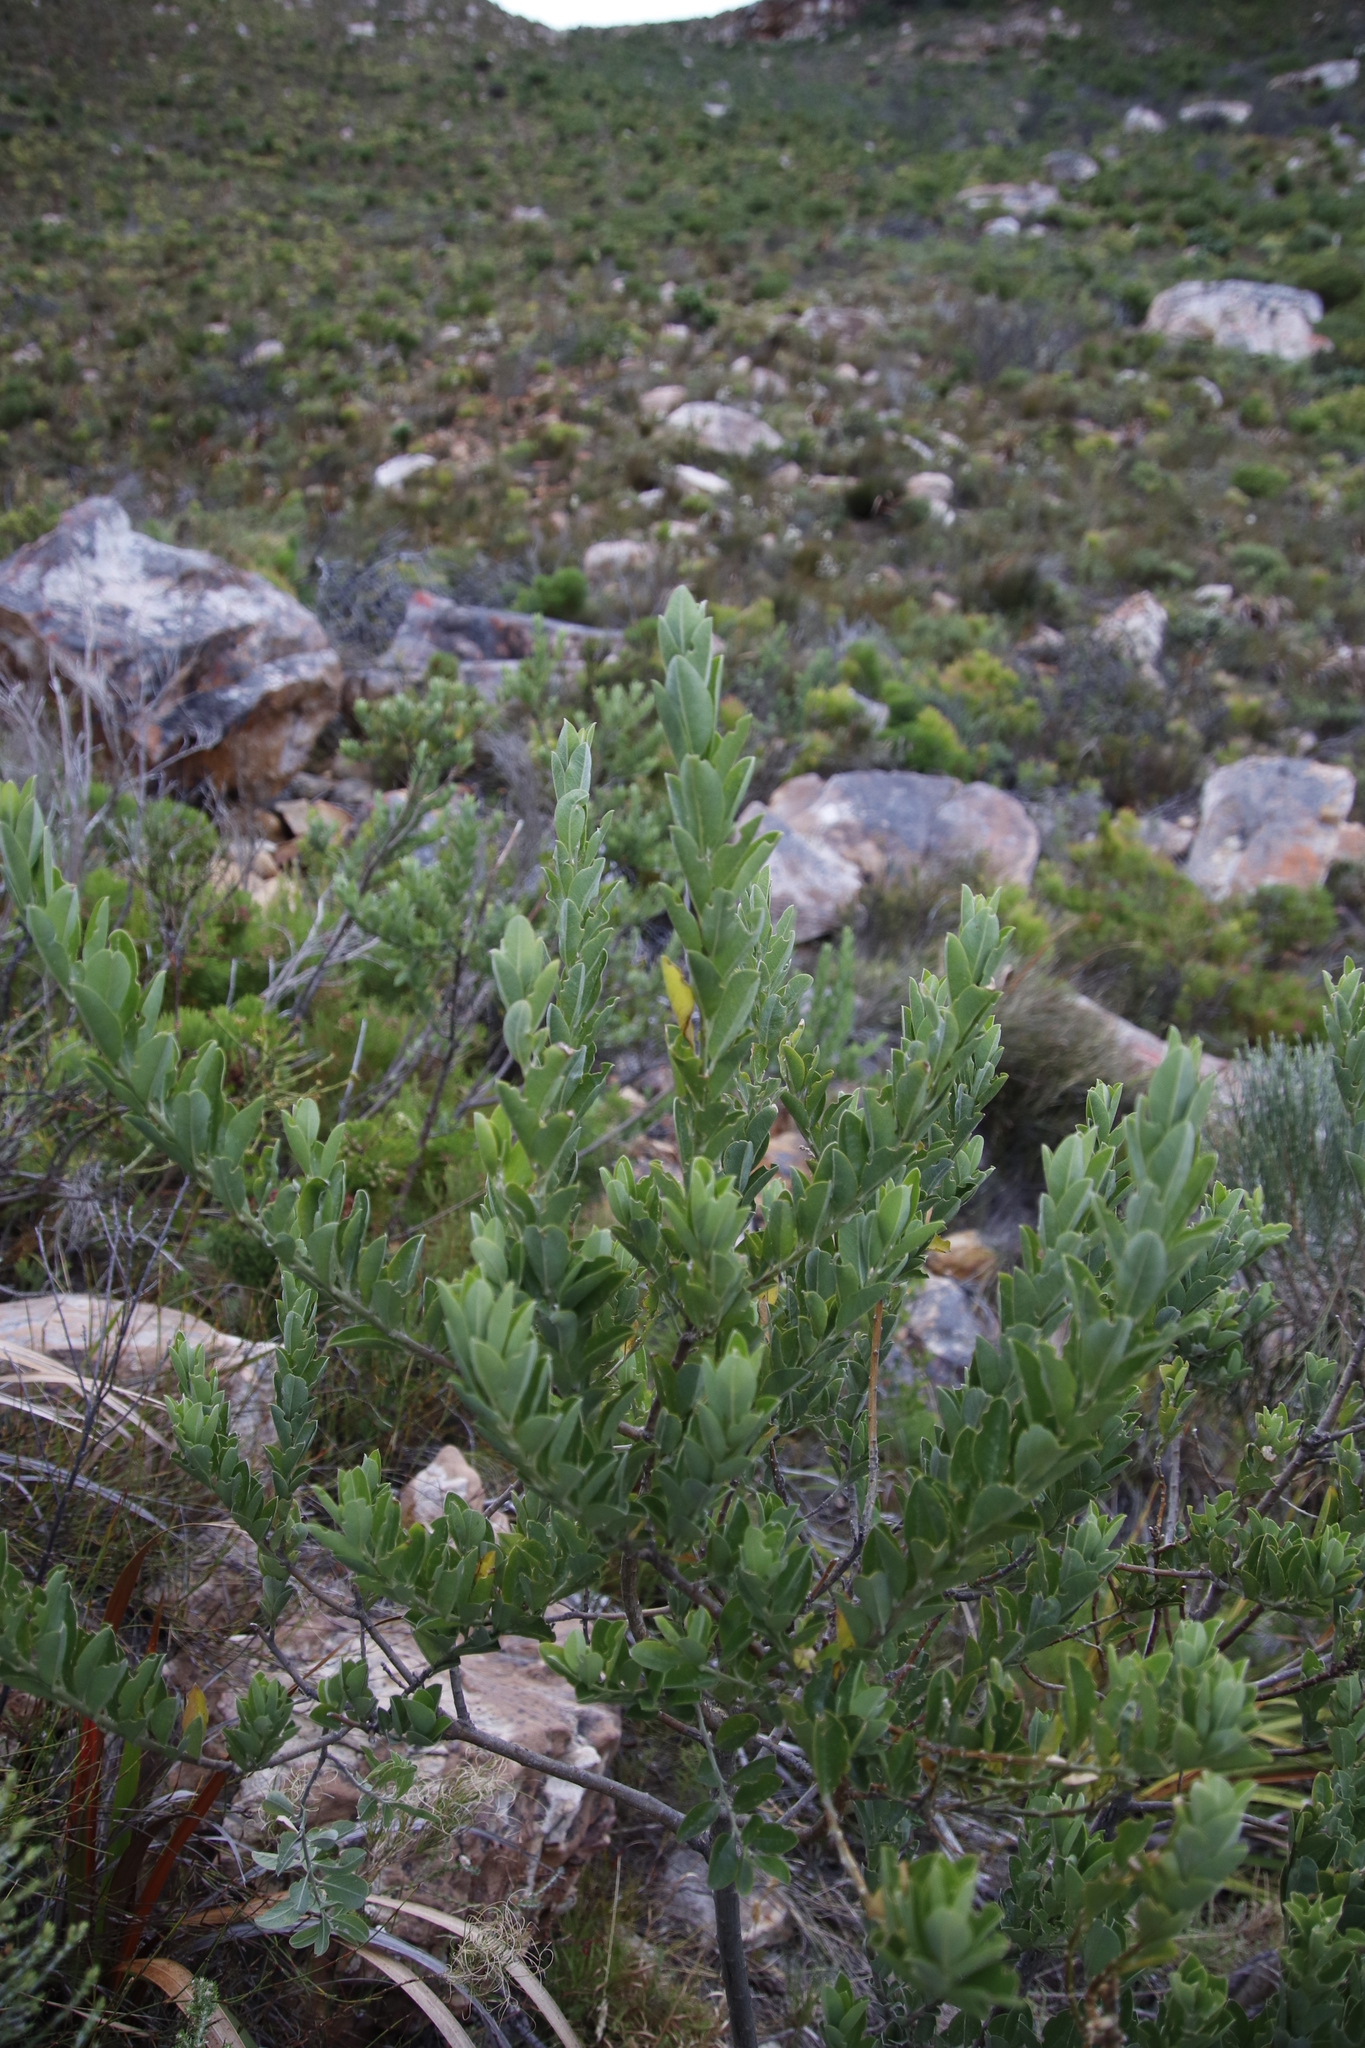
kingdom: Plantae
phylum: Tracheophyta
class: Magnoliopsida
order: Fabales
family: Fabaceae
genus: Podalyria
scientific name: Podalyria calyptrata
